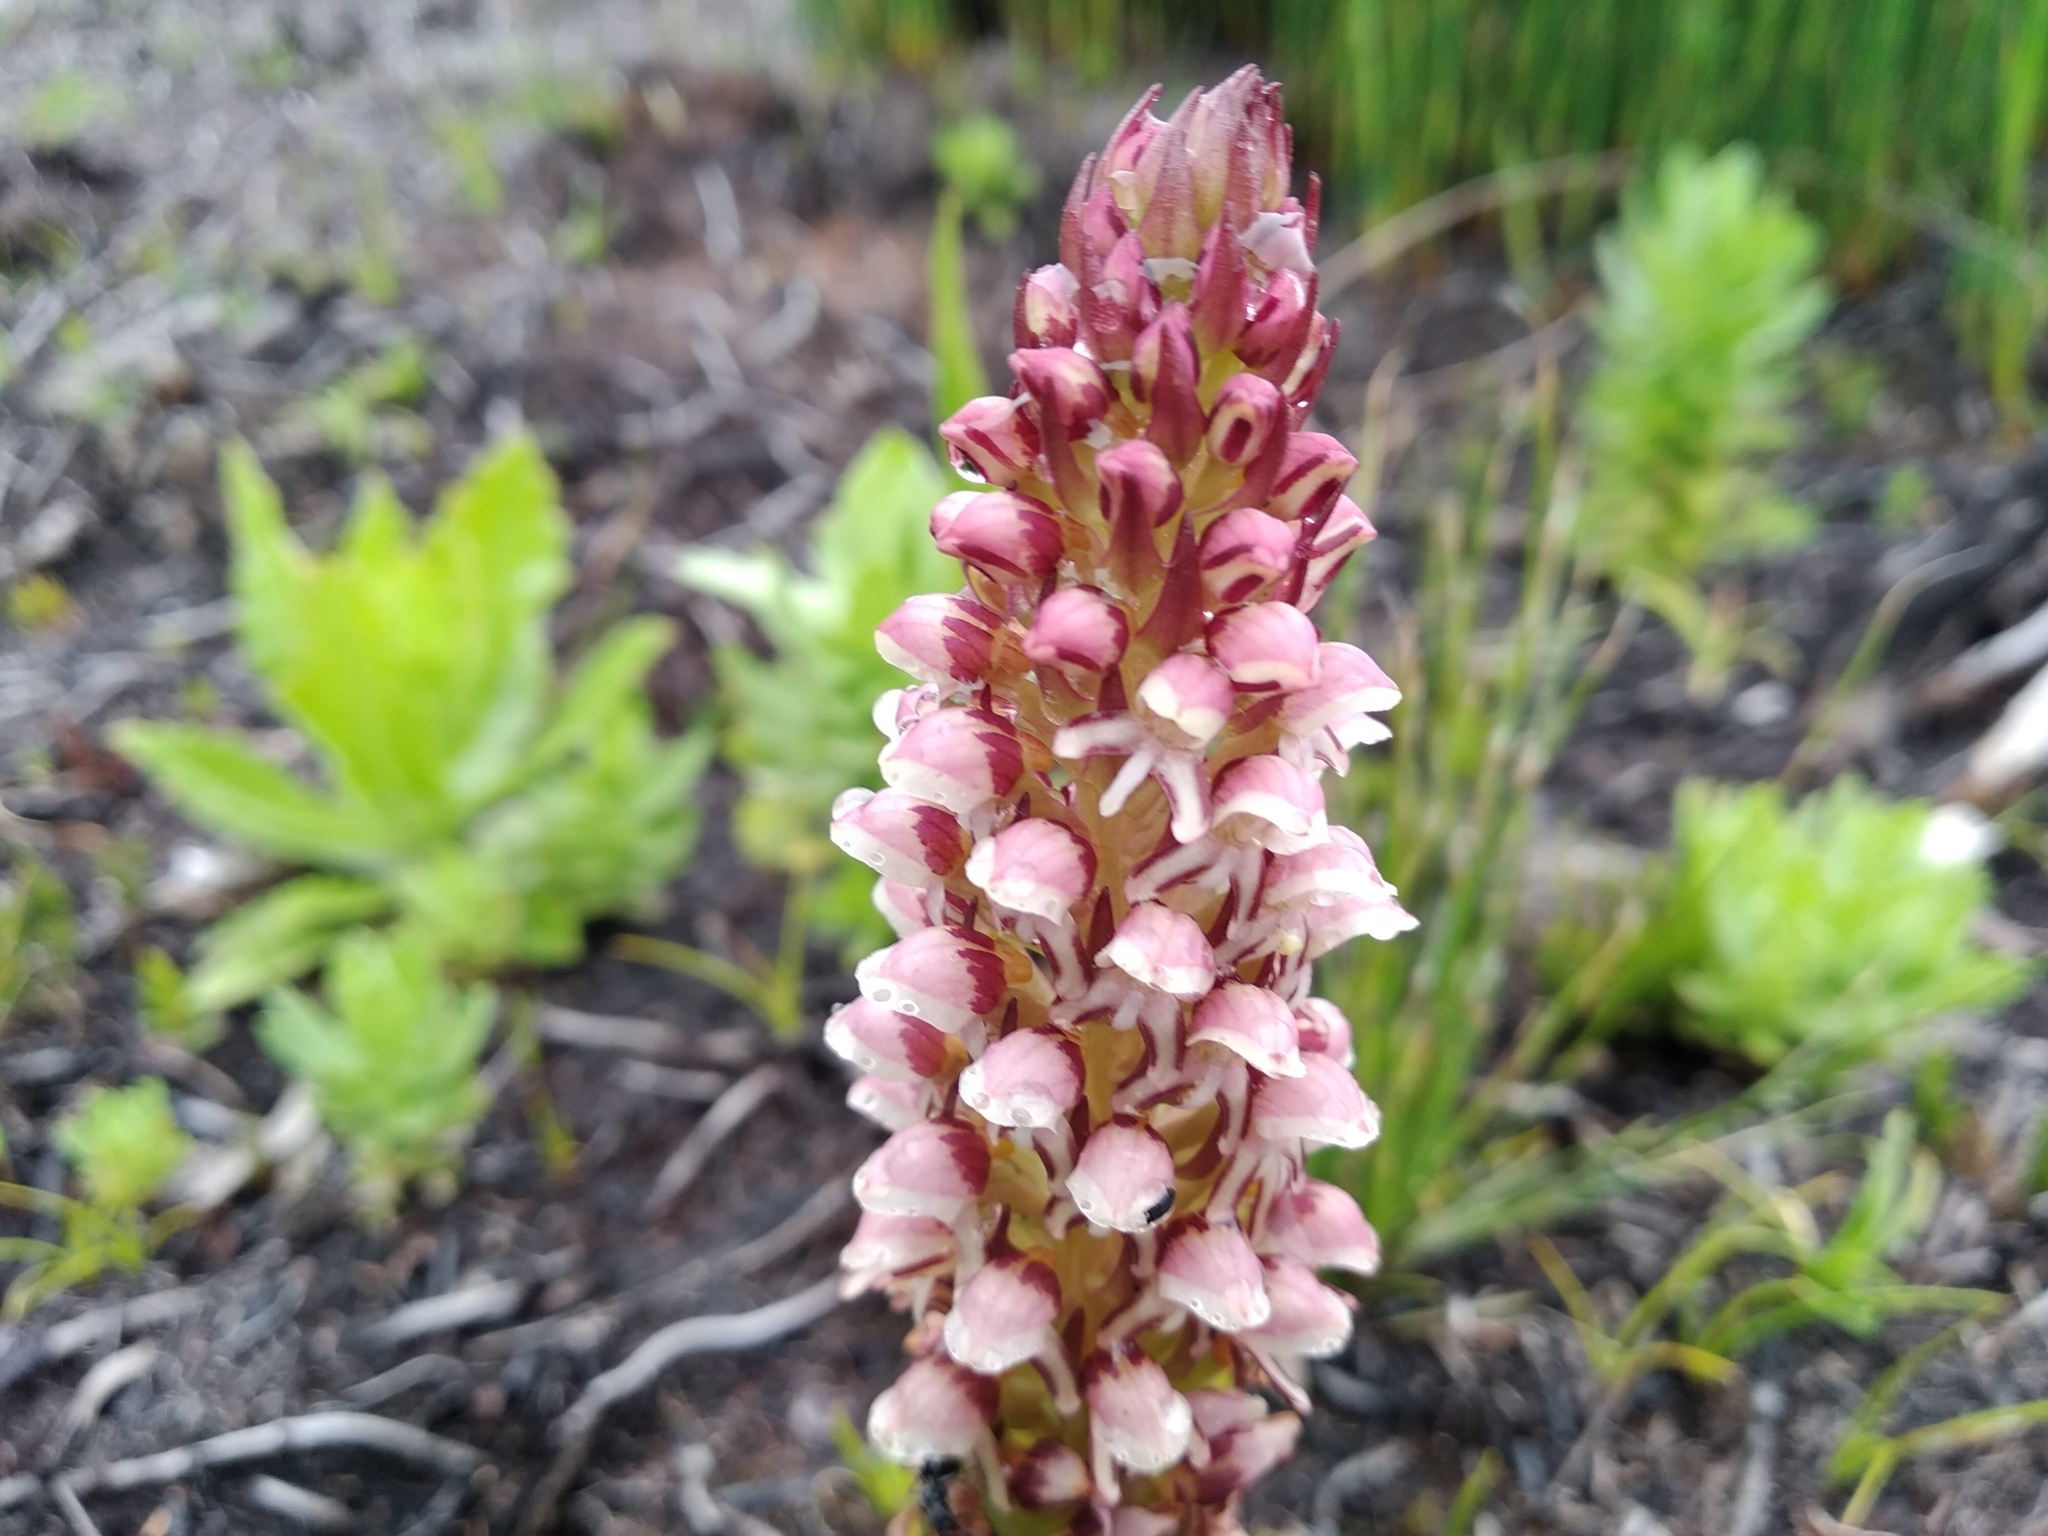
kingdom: Plantae
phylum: Tracheophyta
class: Liliopsida
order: Asparagales
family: Orchidaceae
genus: Disa
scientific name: Disa obtusa
